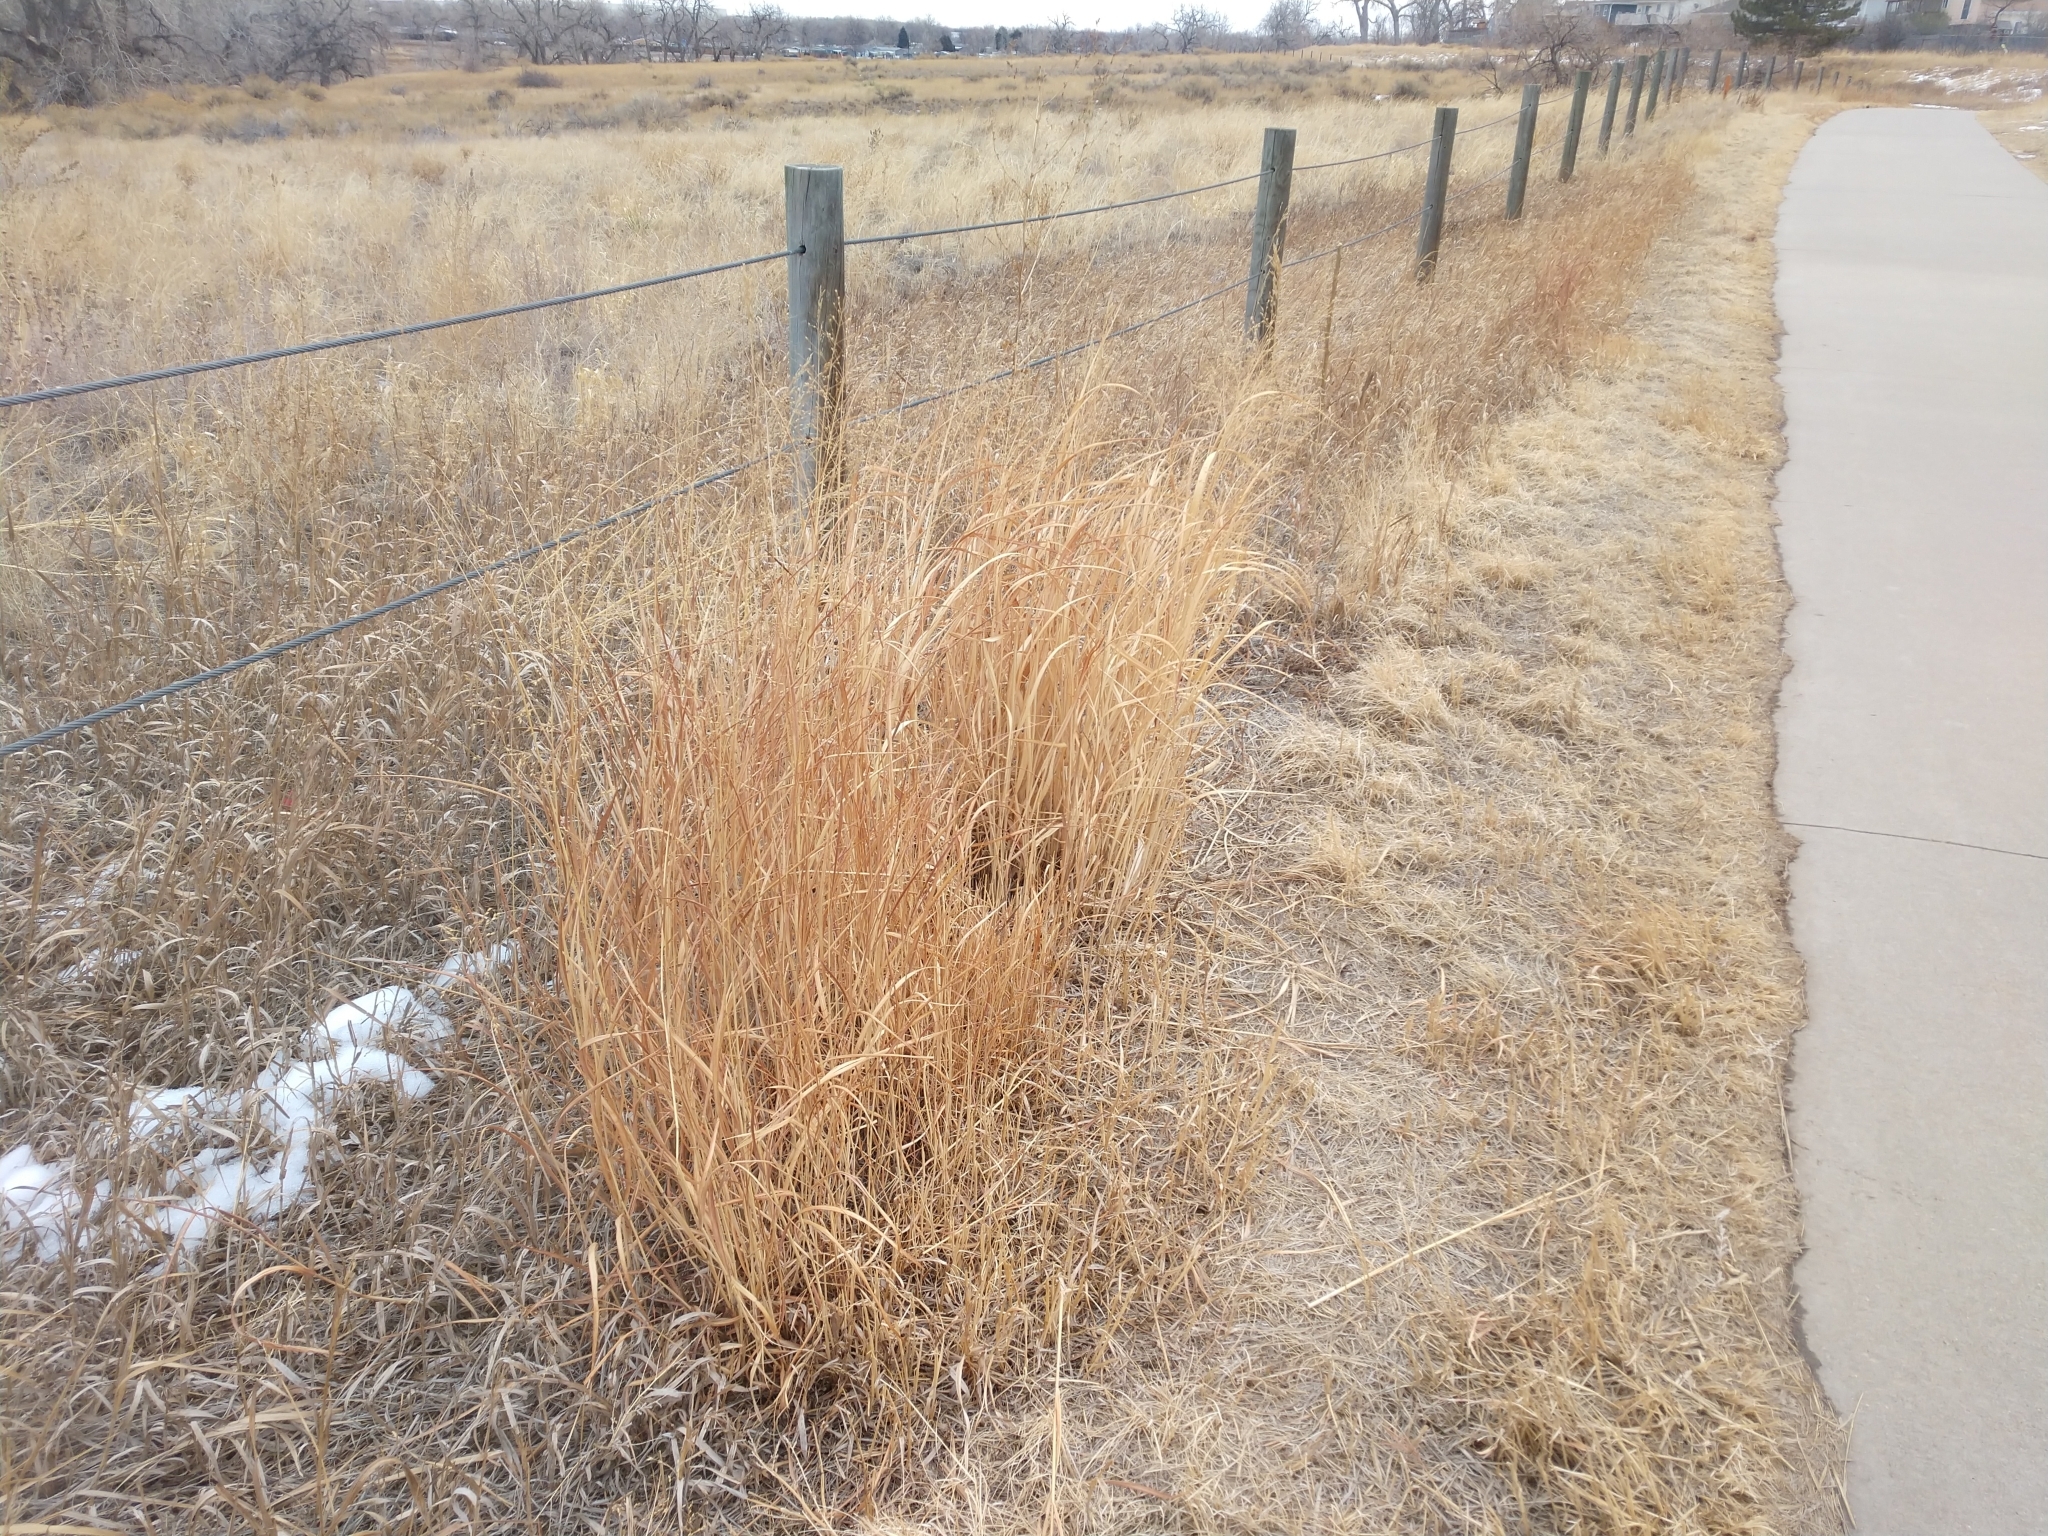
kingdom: Plantae
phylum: Tracheophyta
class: Liliopsida
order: Poales
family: Poaceae
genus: Panicum
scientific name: Panicum virgatum
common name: Switchgrass
